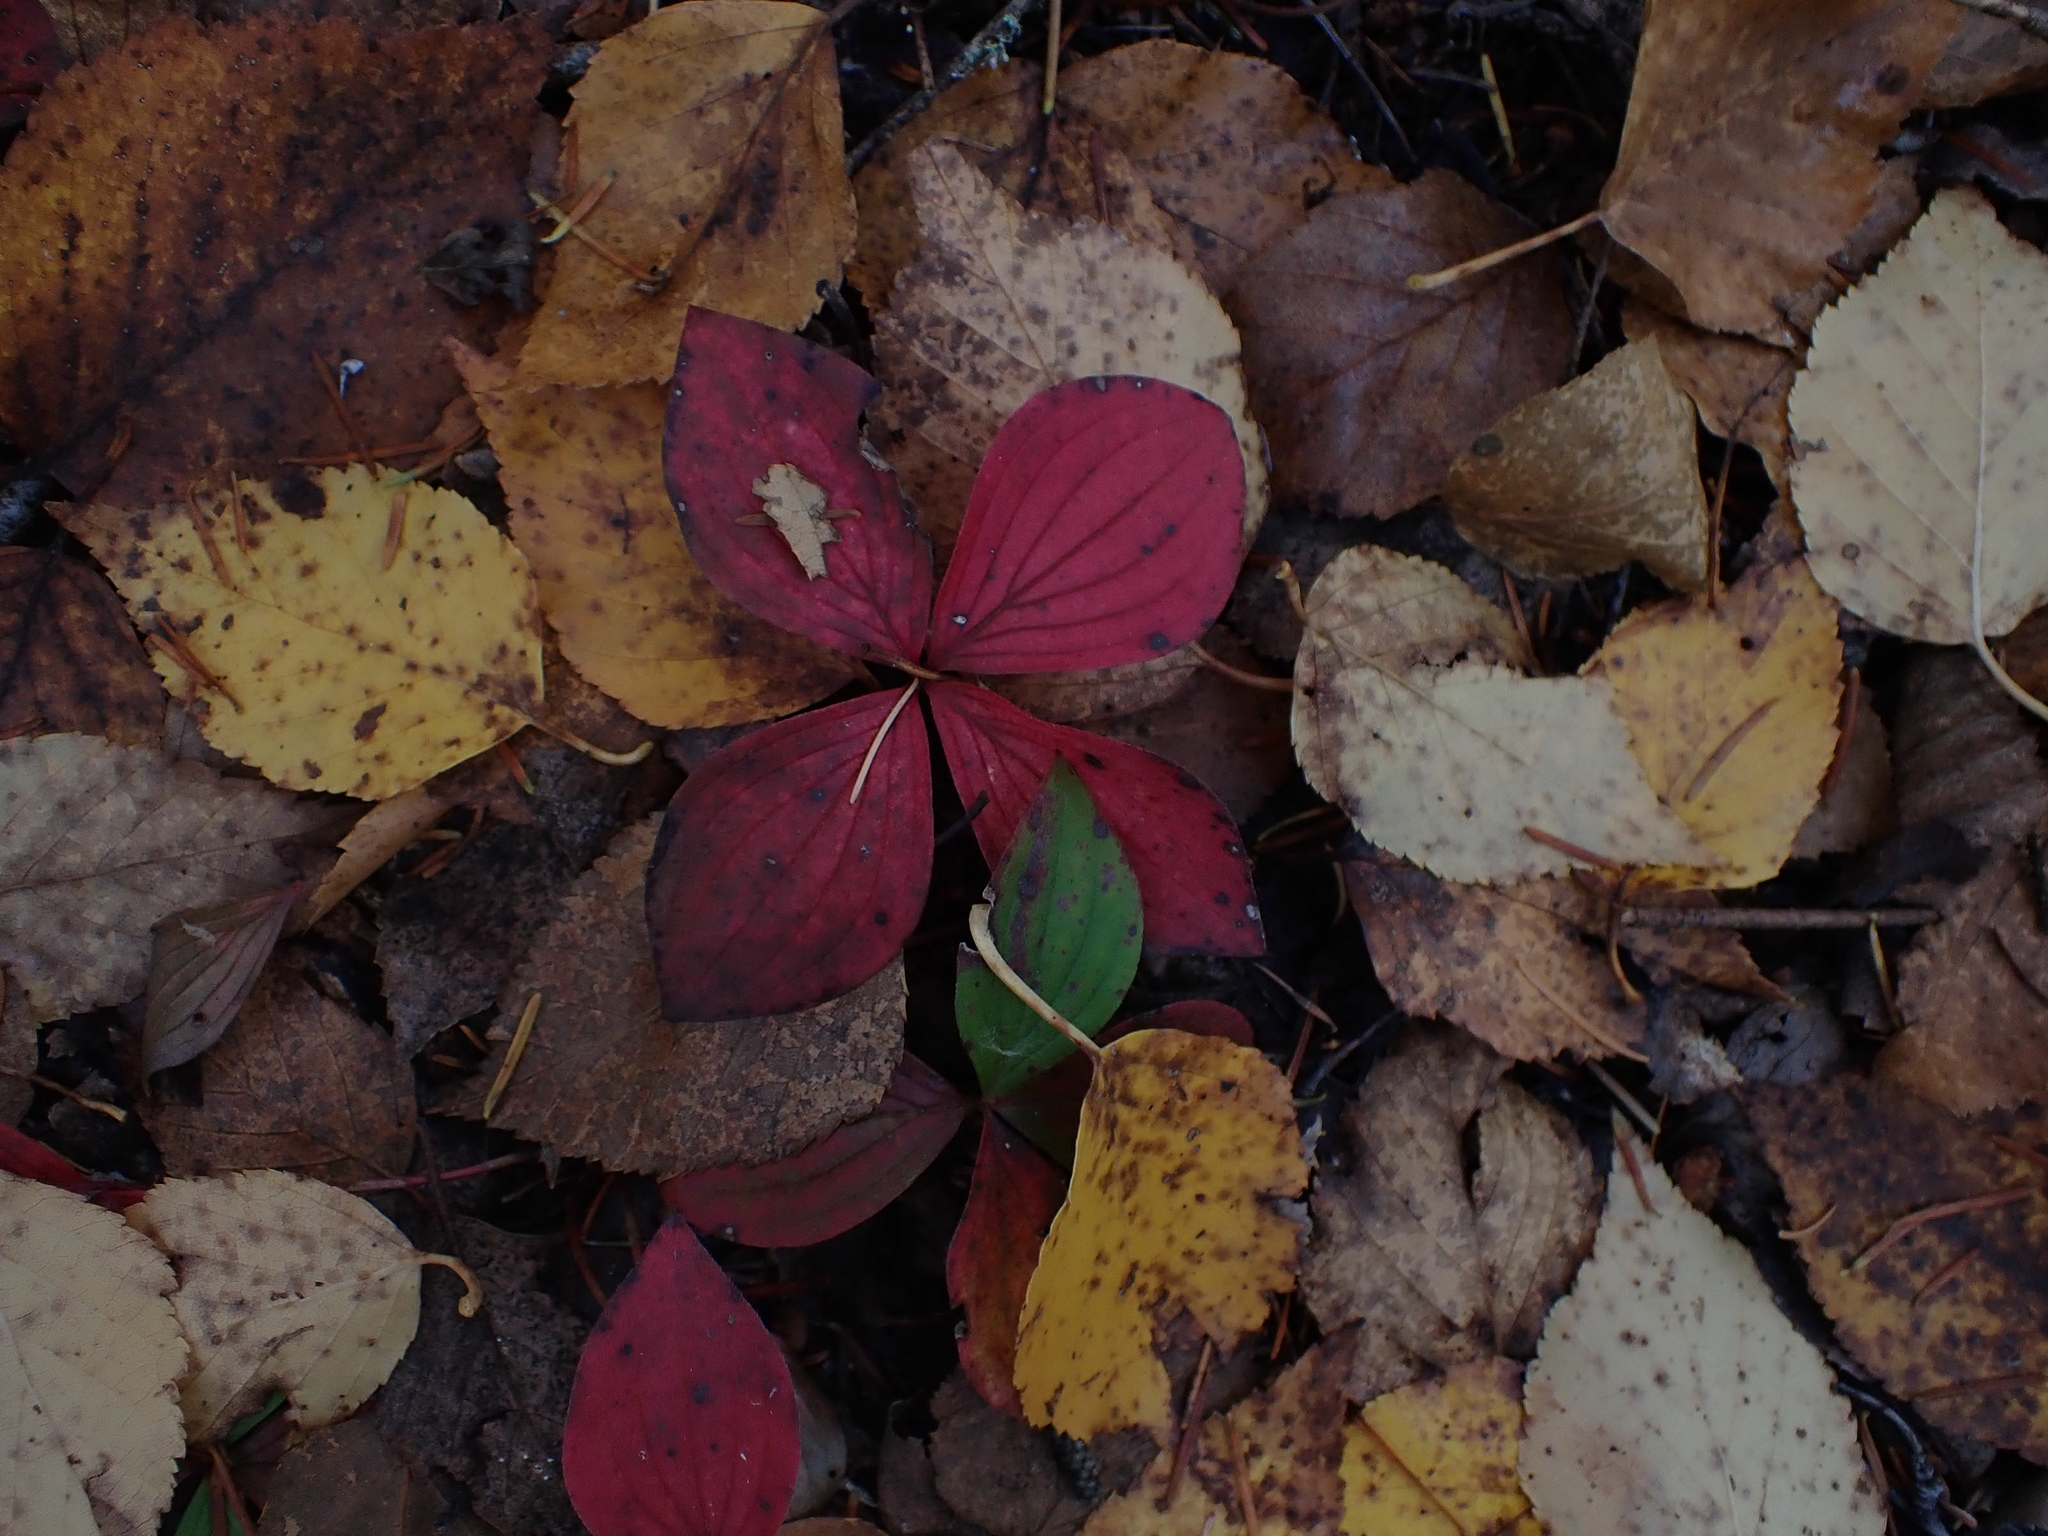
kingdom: Plantae
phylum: Tracheophyta
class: Magnoliopsida
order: Cornales
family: Cornaceae
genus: Cornus
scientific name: Cornus canadensis
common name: Creeping dogwood
